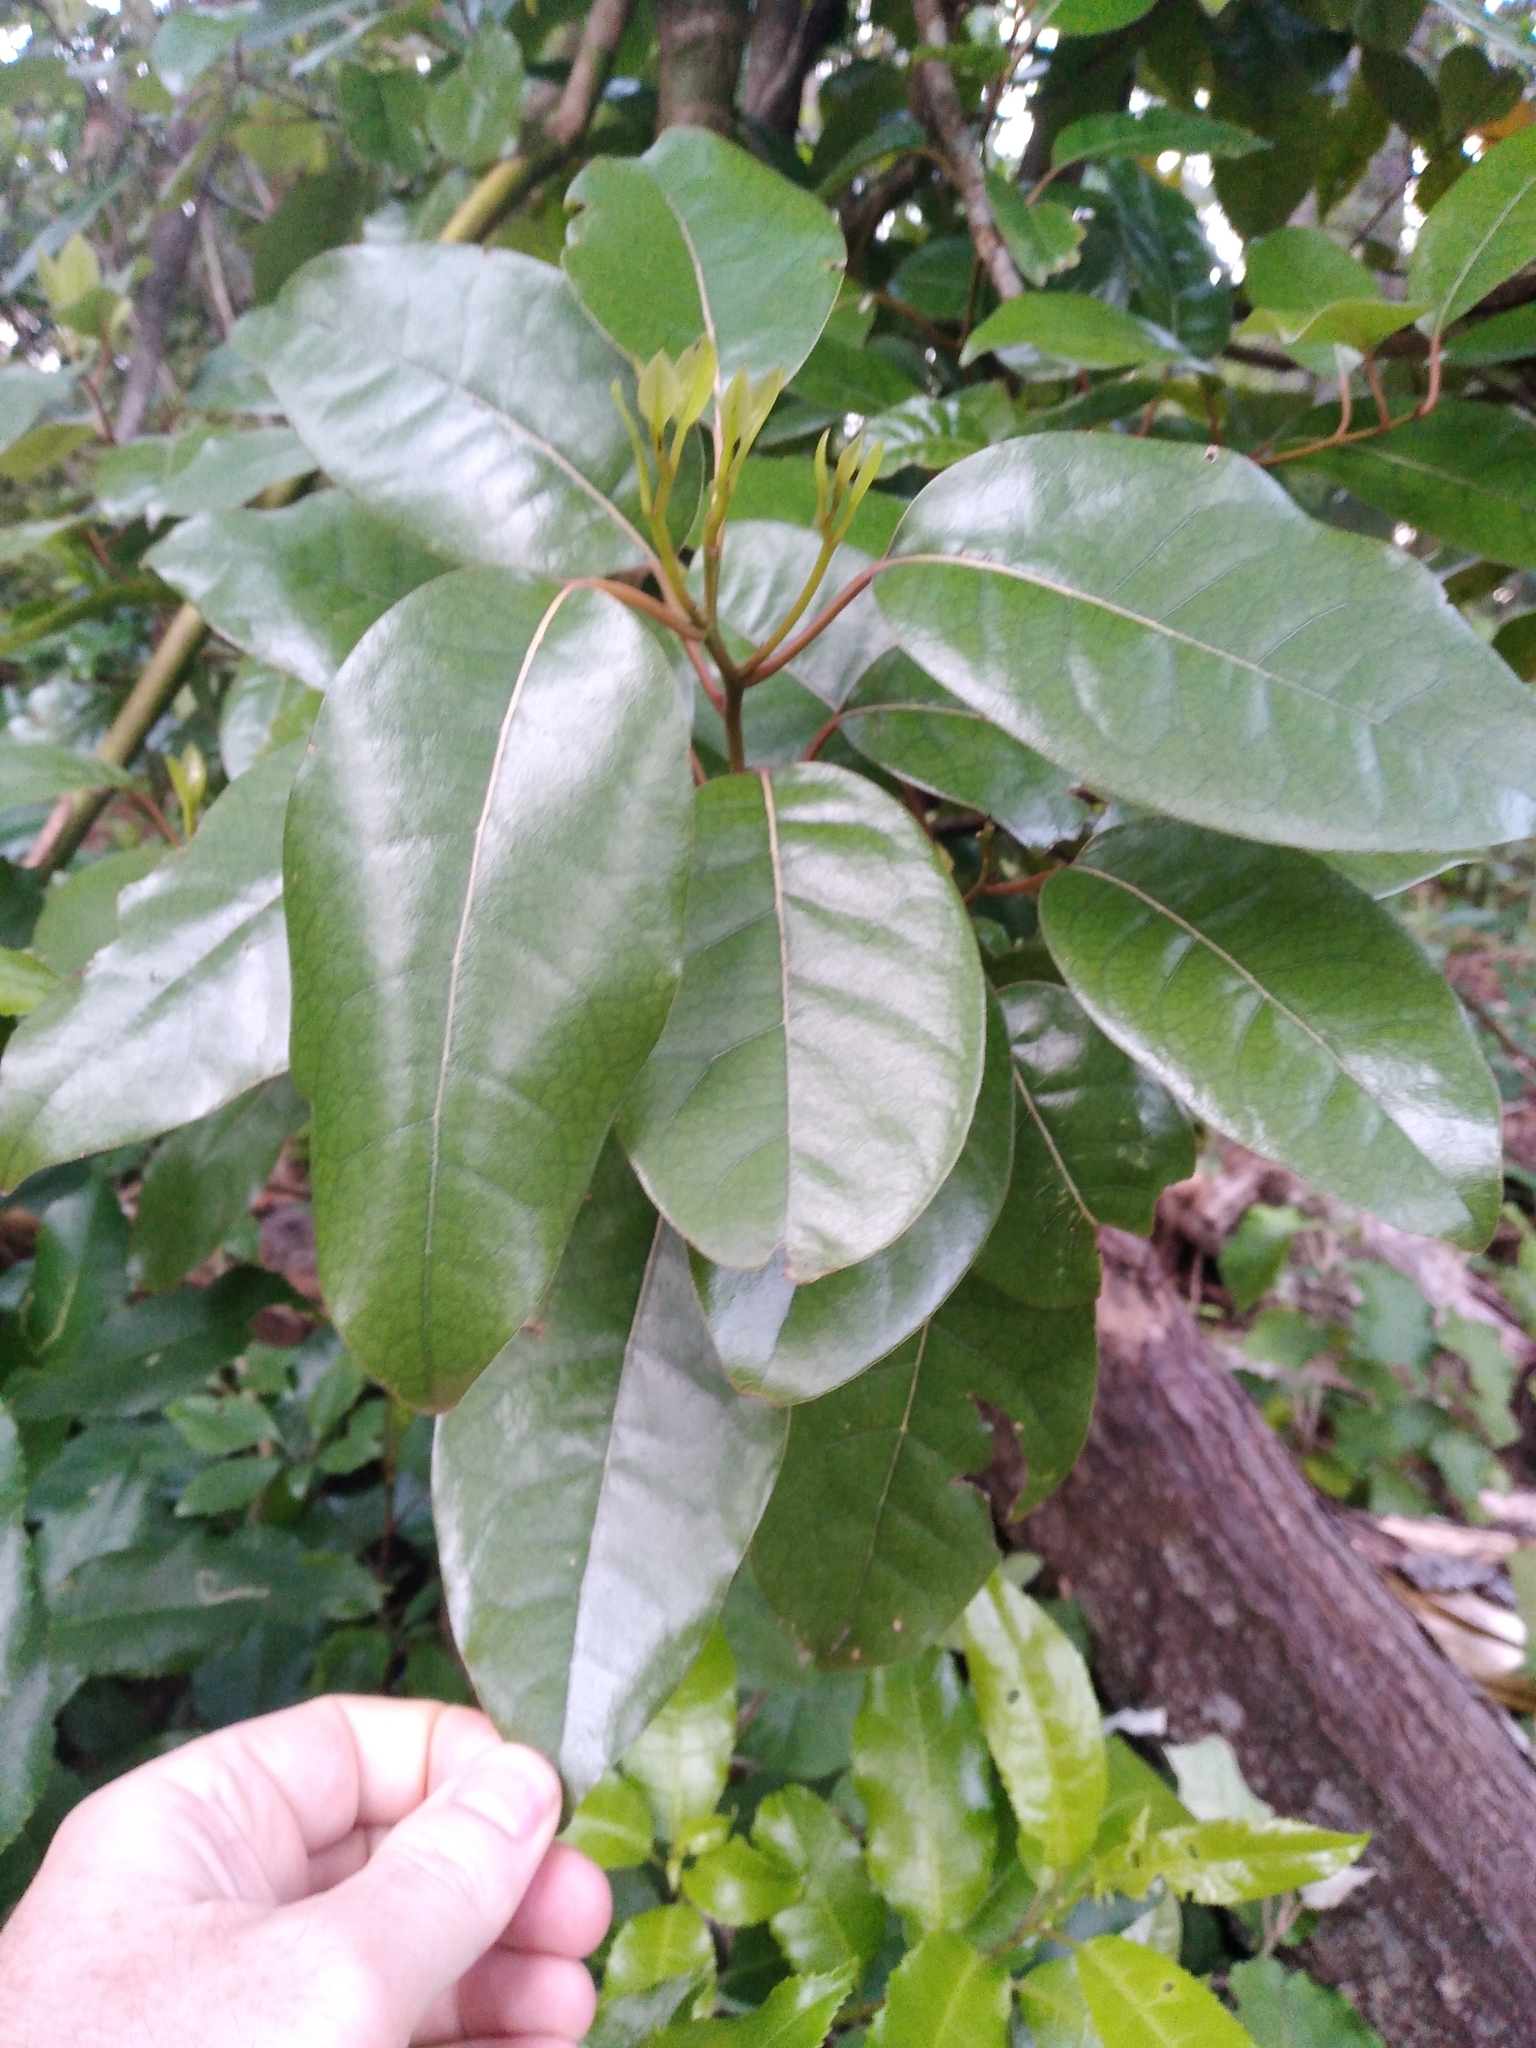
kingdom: Plantae
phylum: Tracheophyta
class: Magnoliopsida
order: Laurales
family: Lauraceae
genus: Litsea
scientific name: Litsea calicaris
